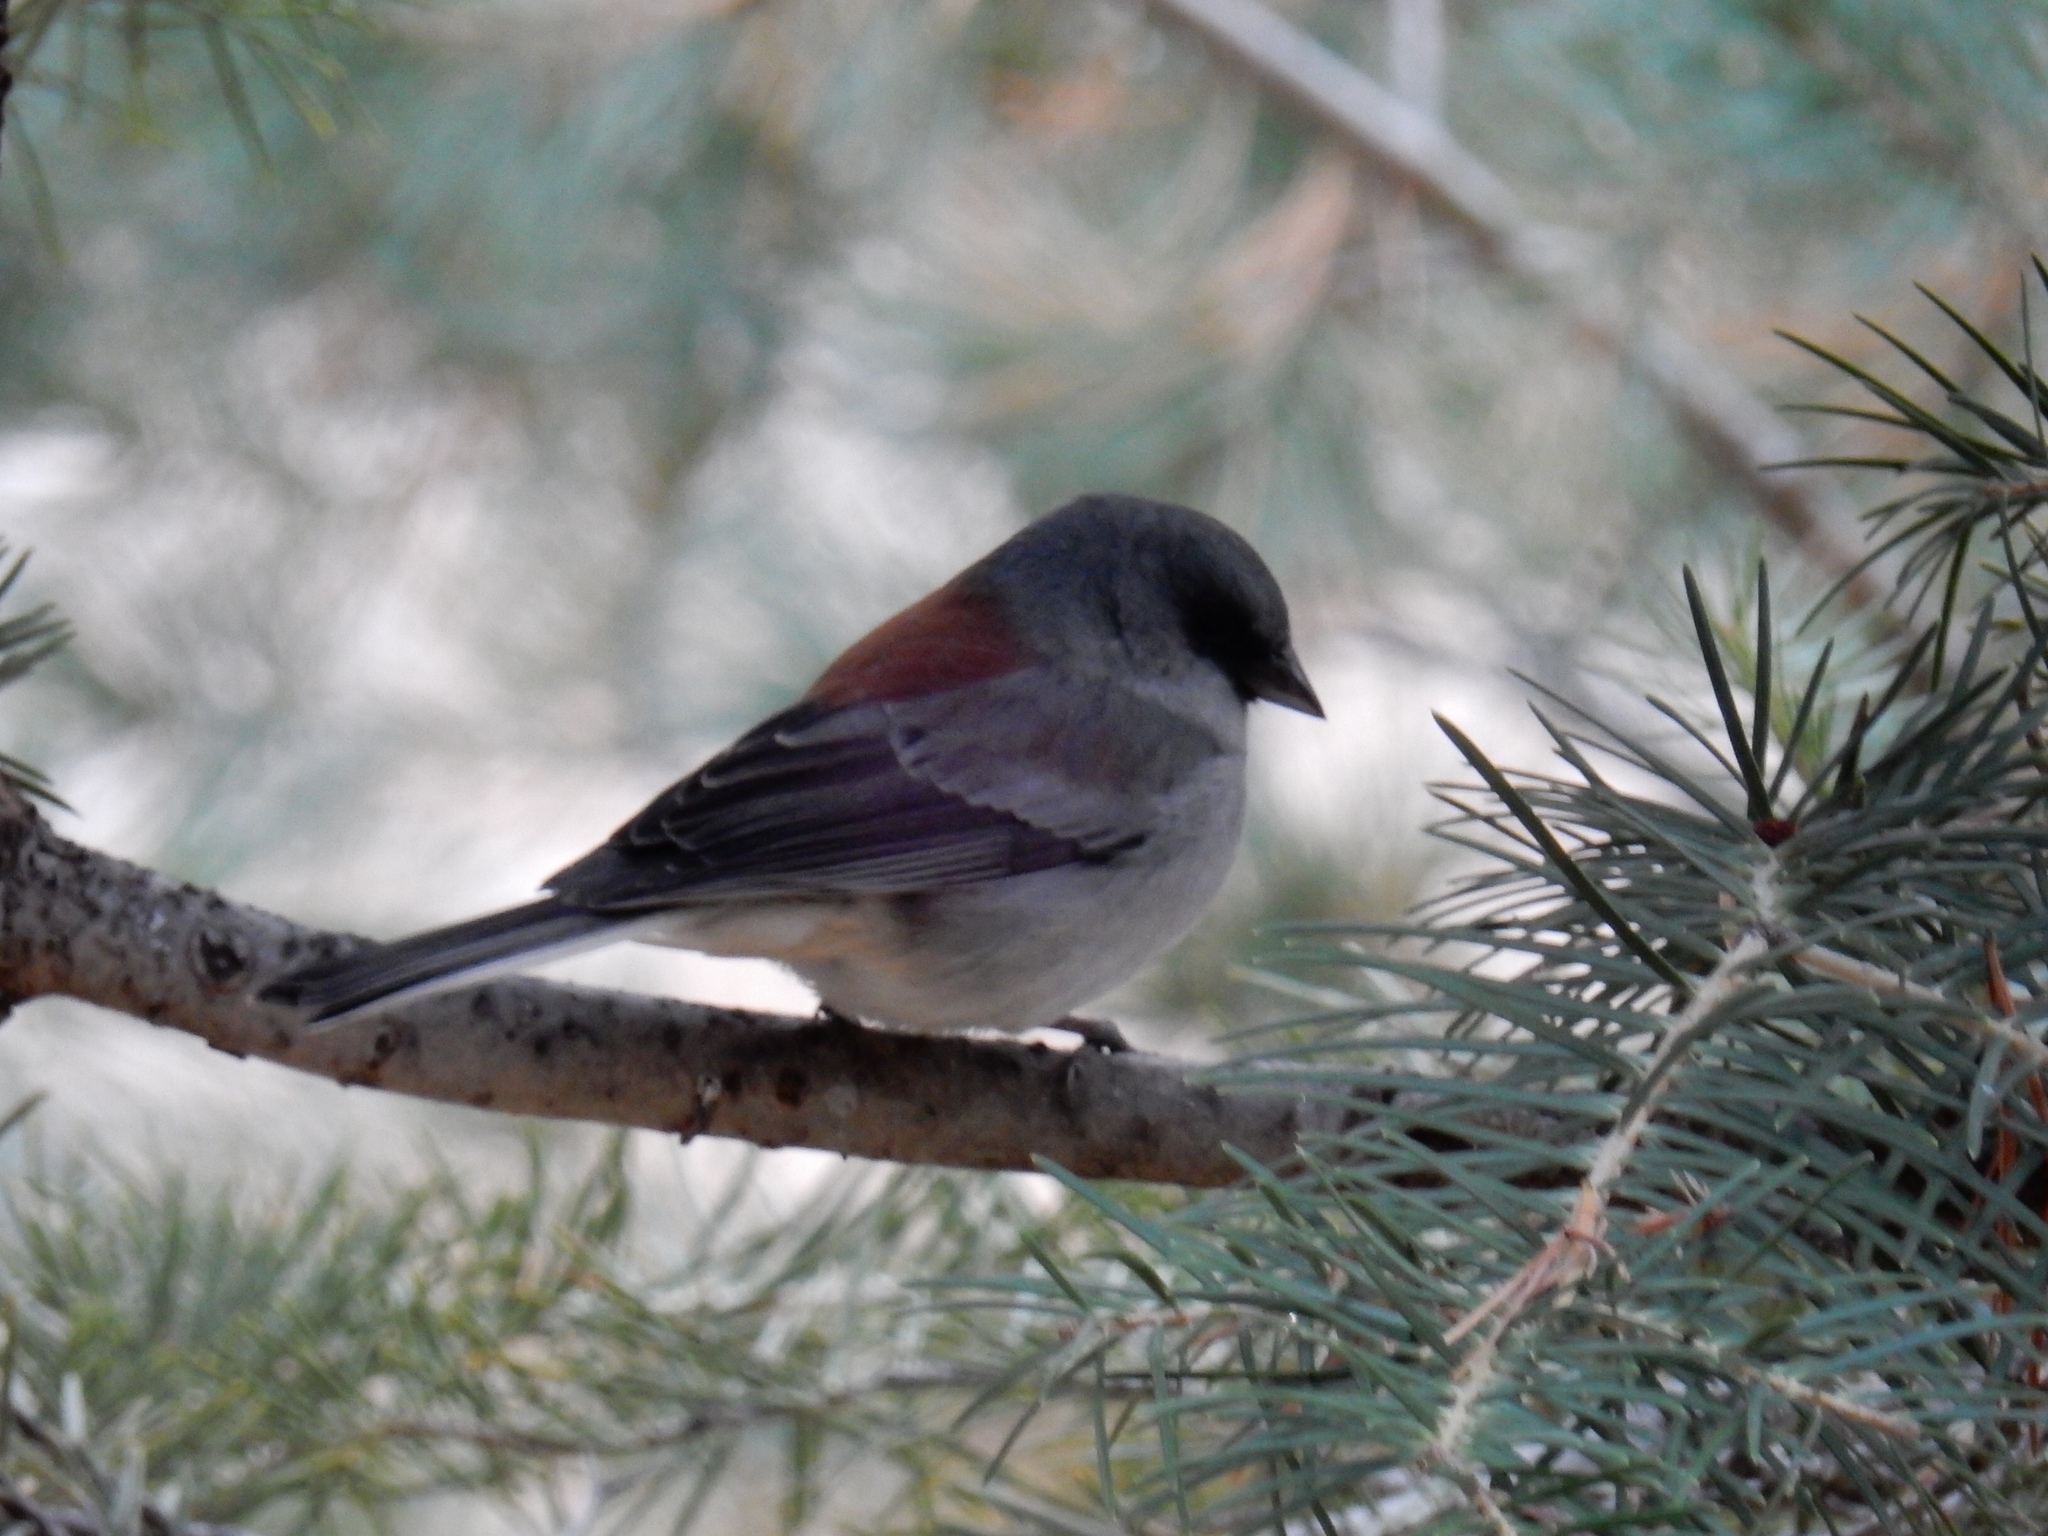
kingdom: Animalia
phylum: Chordata
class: Aves
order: Passeriformes
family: Passerellidae
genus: Junco
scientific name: Junco hyemalis
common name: Dark-eyed junco
